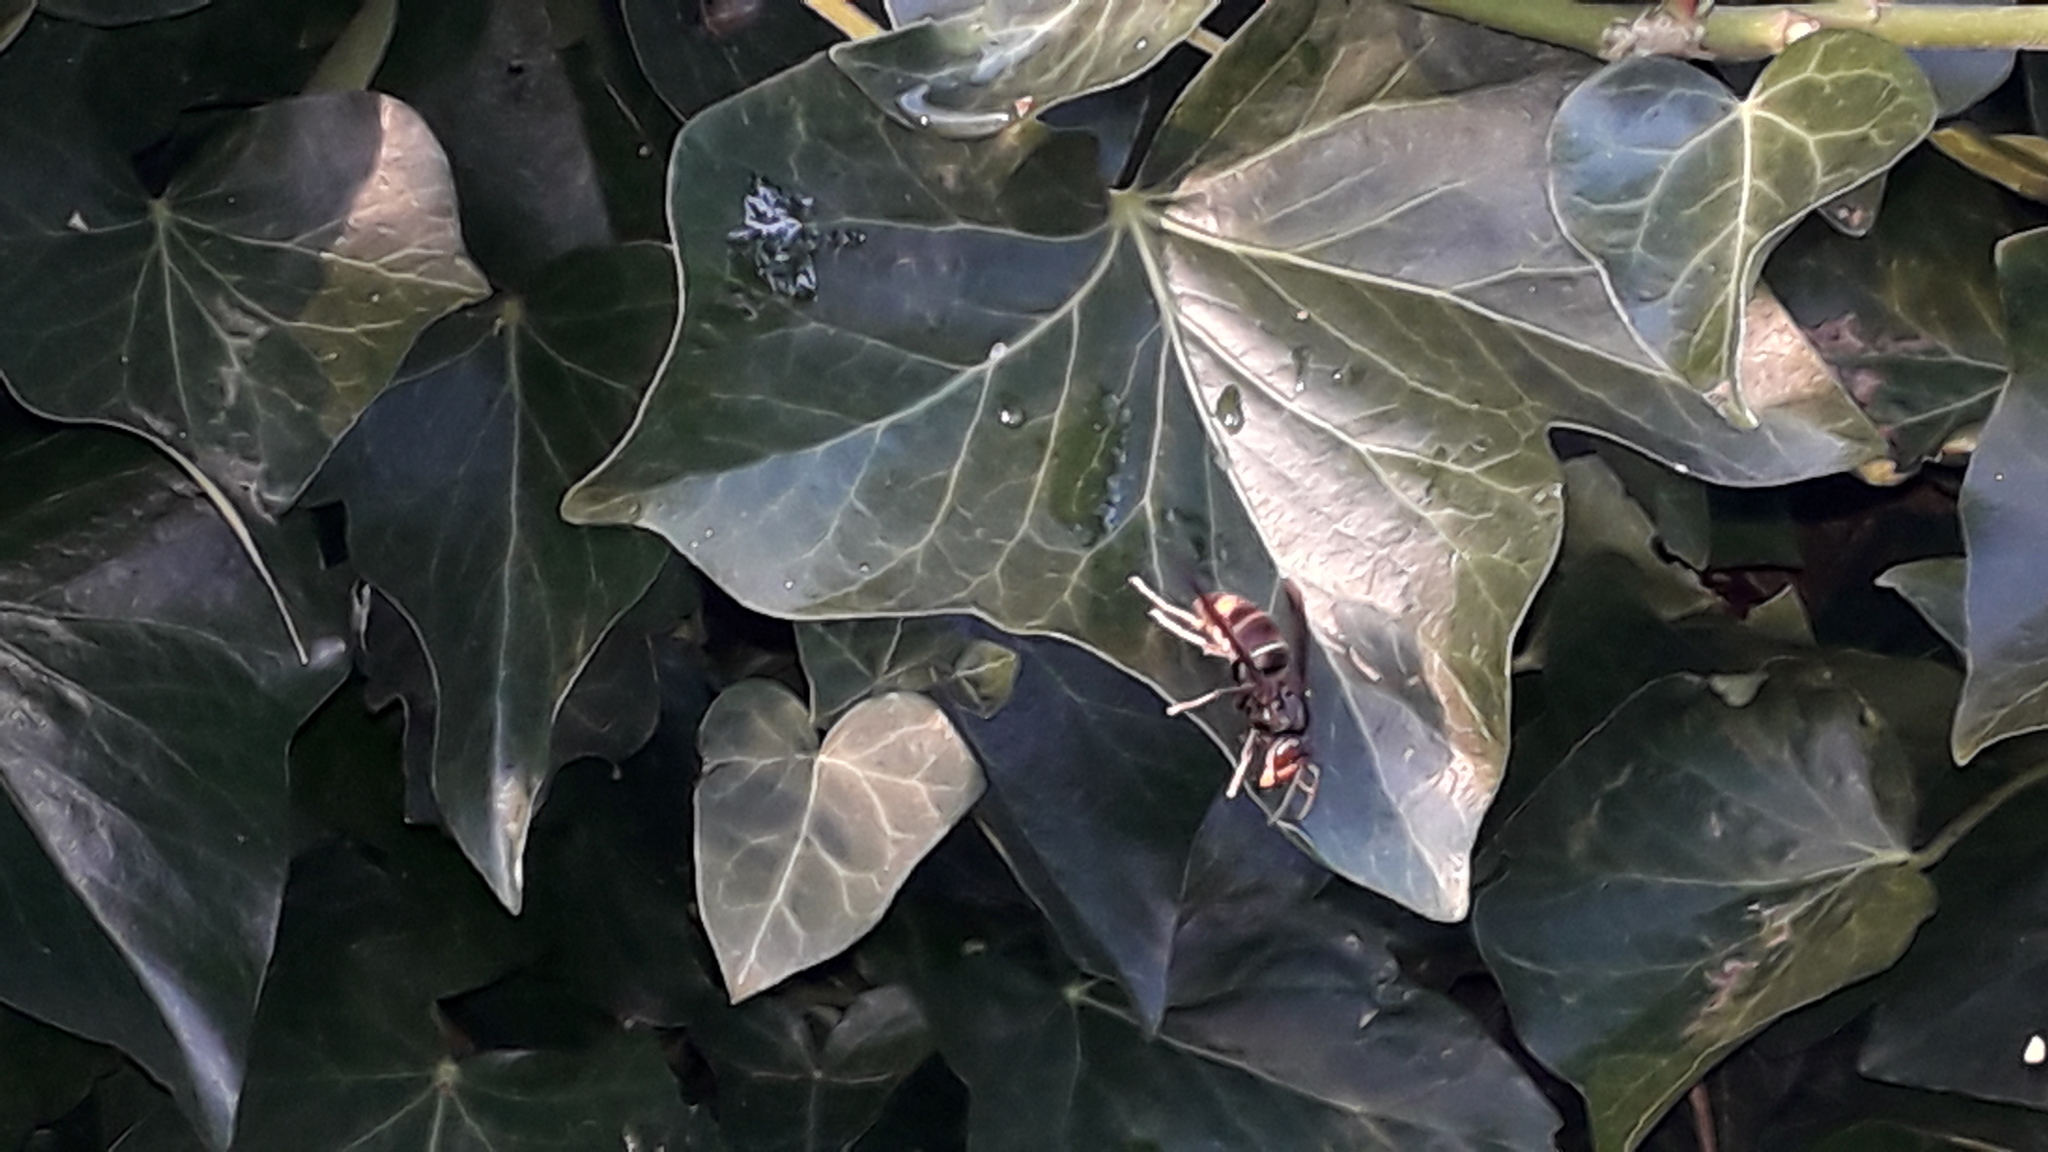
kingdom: Animalia
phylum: Arthropoda
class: Insecta
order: Hymenoptera
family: Vespidae
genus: Vespa
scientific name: Vespa velutina
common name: Asian hornet
